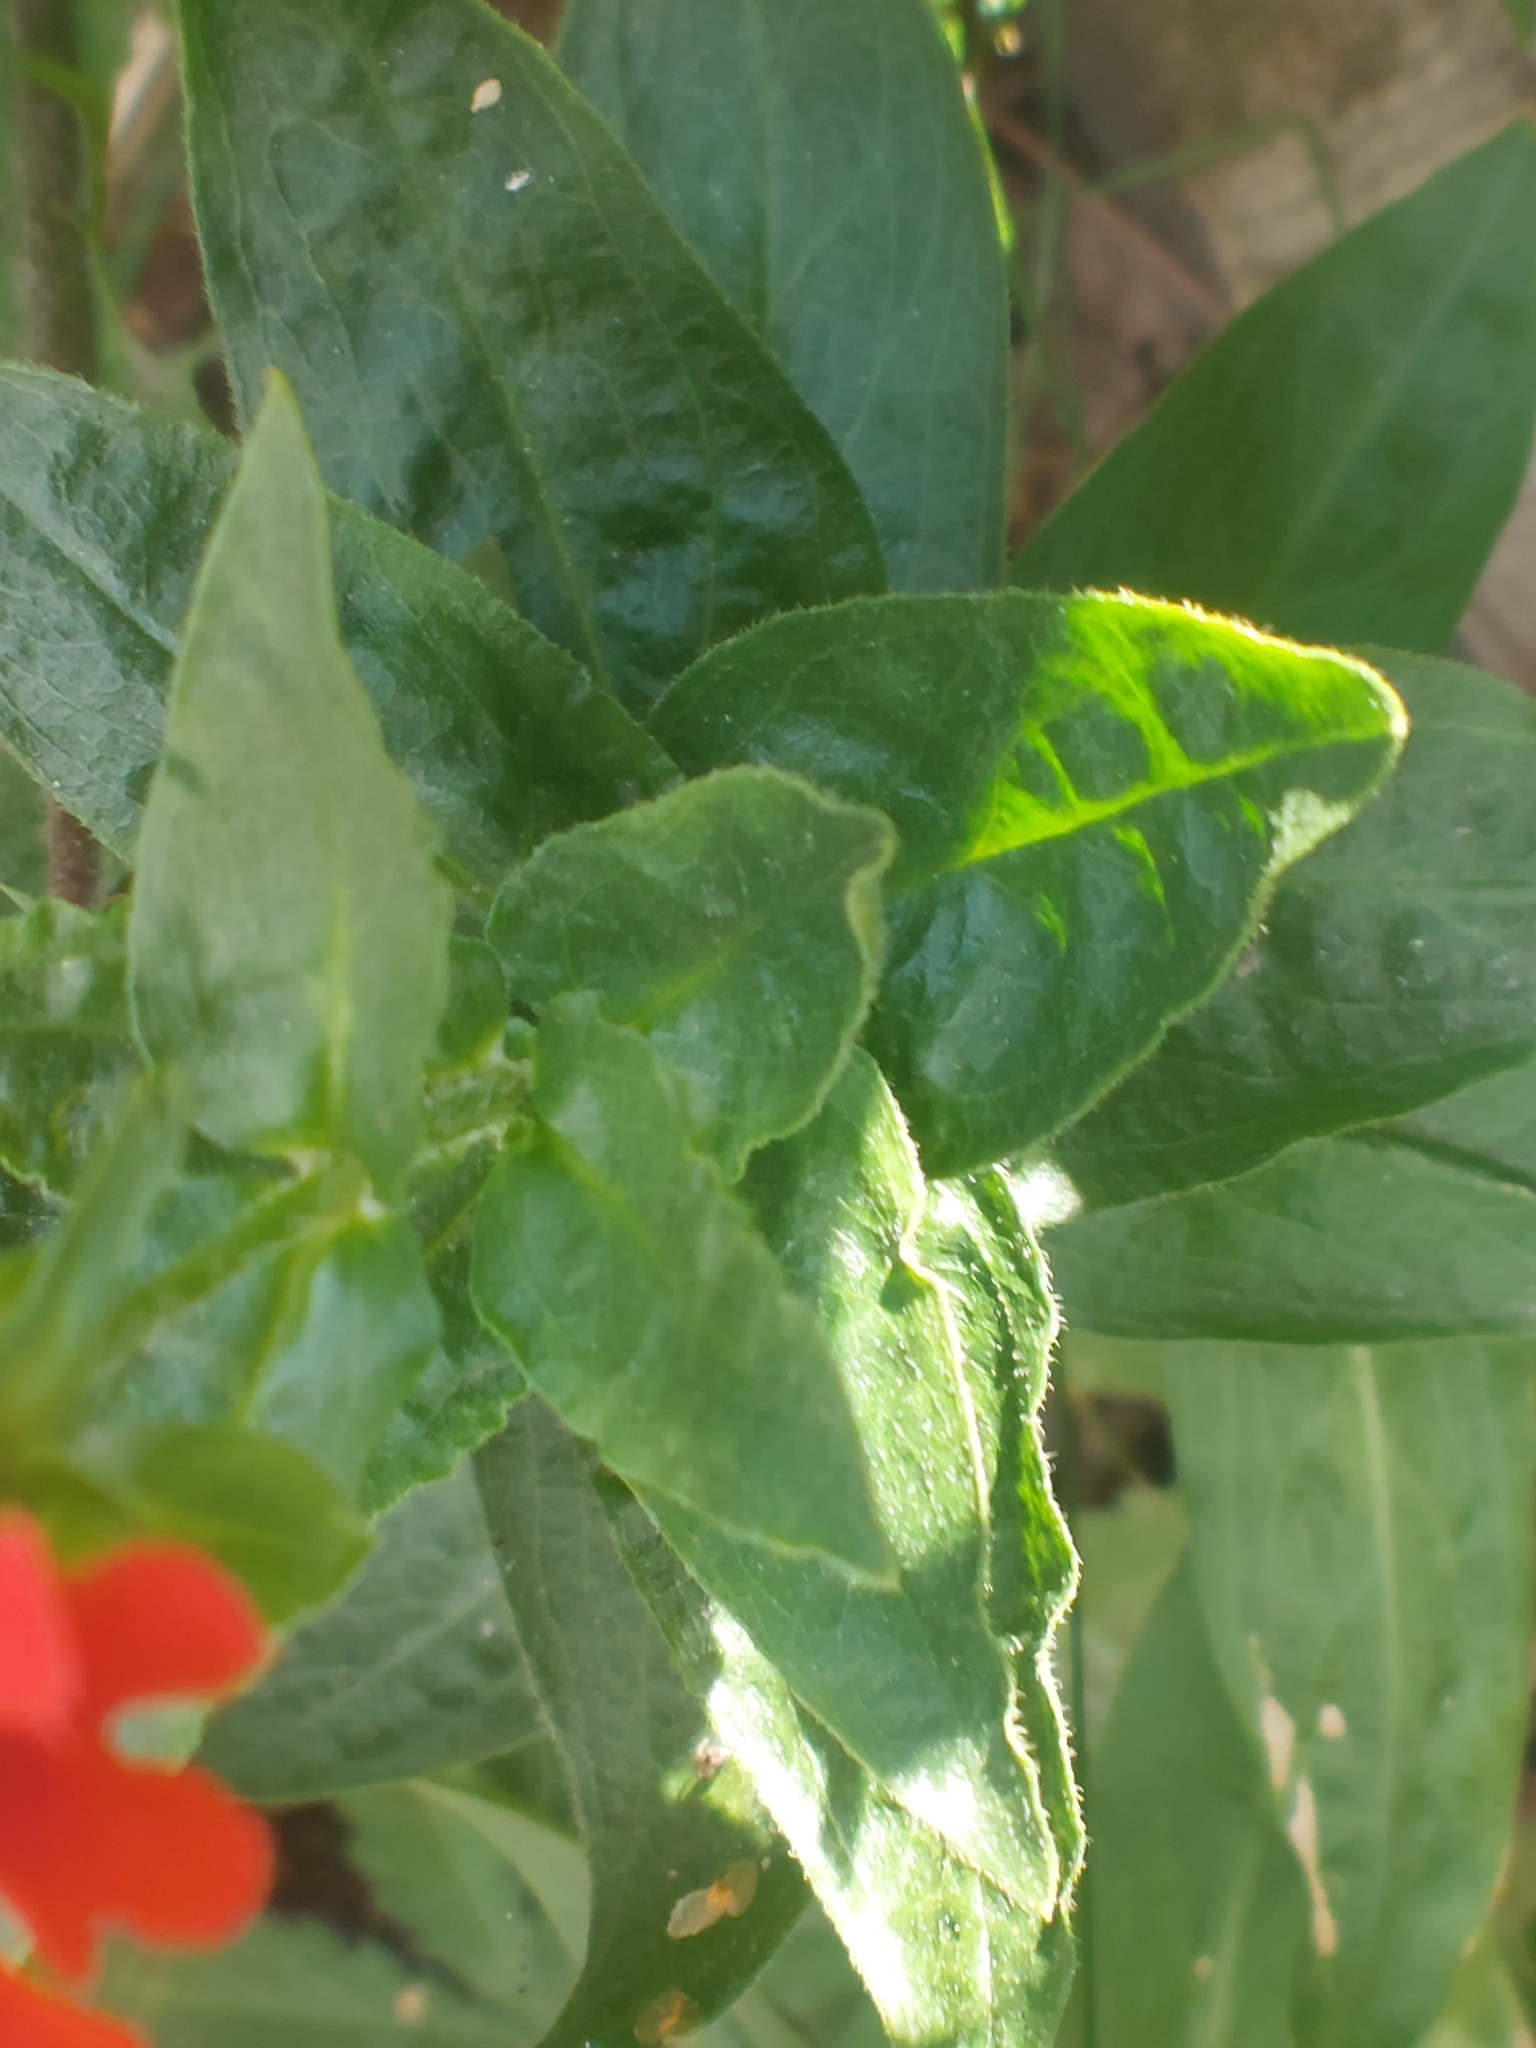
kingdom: Plantae
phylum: Tracheophyta
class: Magnoliopsida
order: Caryophyllales
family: Caryophyllaceae
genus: Silene
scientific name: Silene chalcedonica
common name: Maltese-cross
